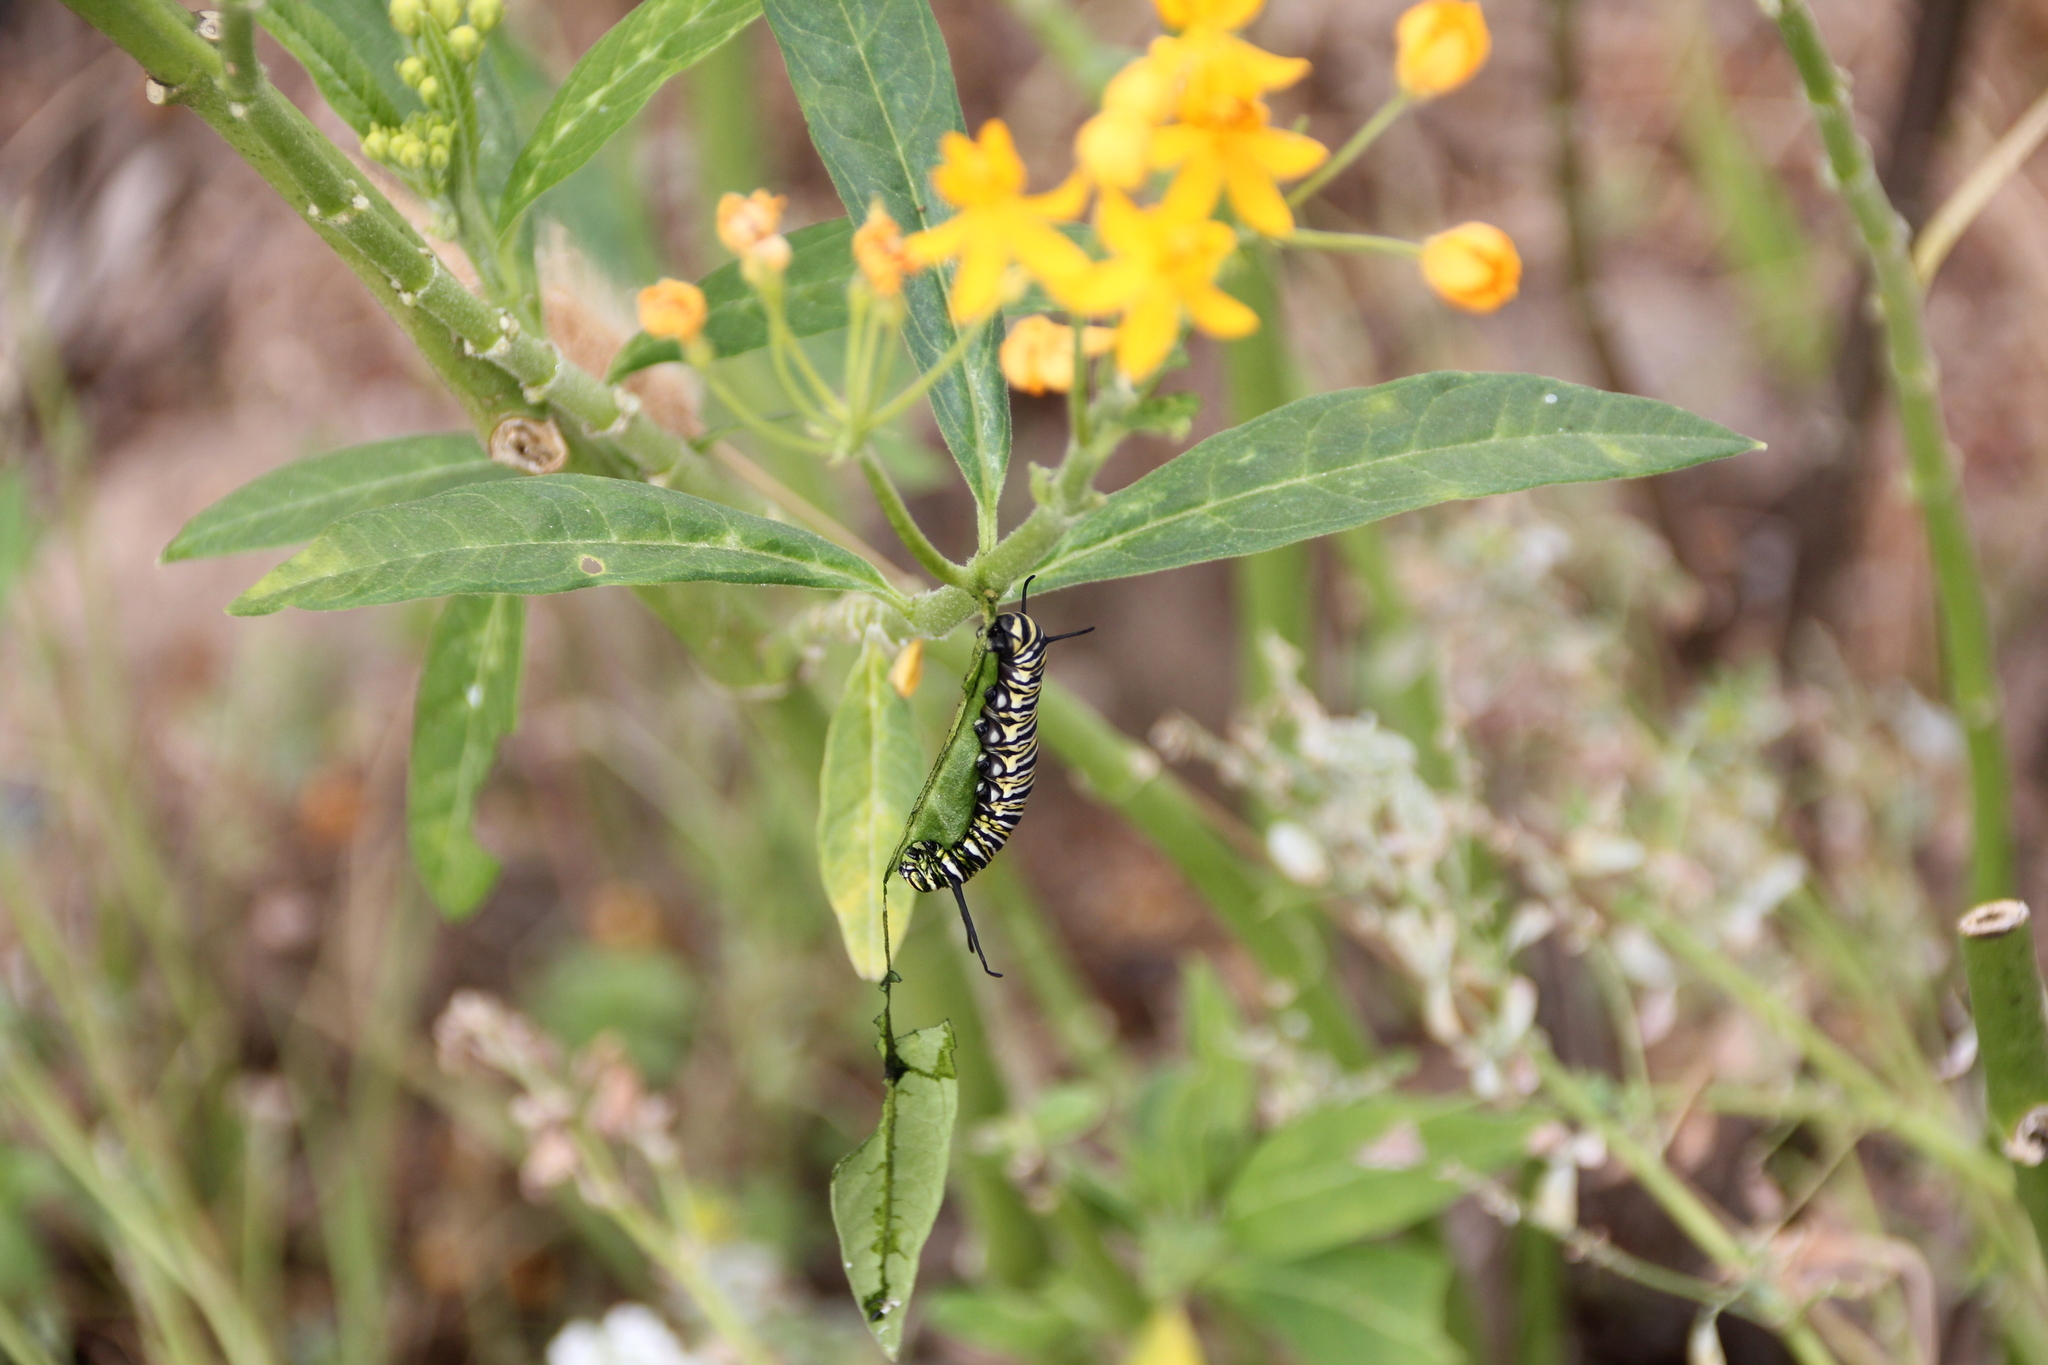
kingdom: Animalia
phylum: Arthropoda
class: Insecta
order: Lepidoptera
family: Nymphalidae
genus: Danaus
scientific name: Danaus plexippus
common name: Monarch
